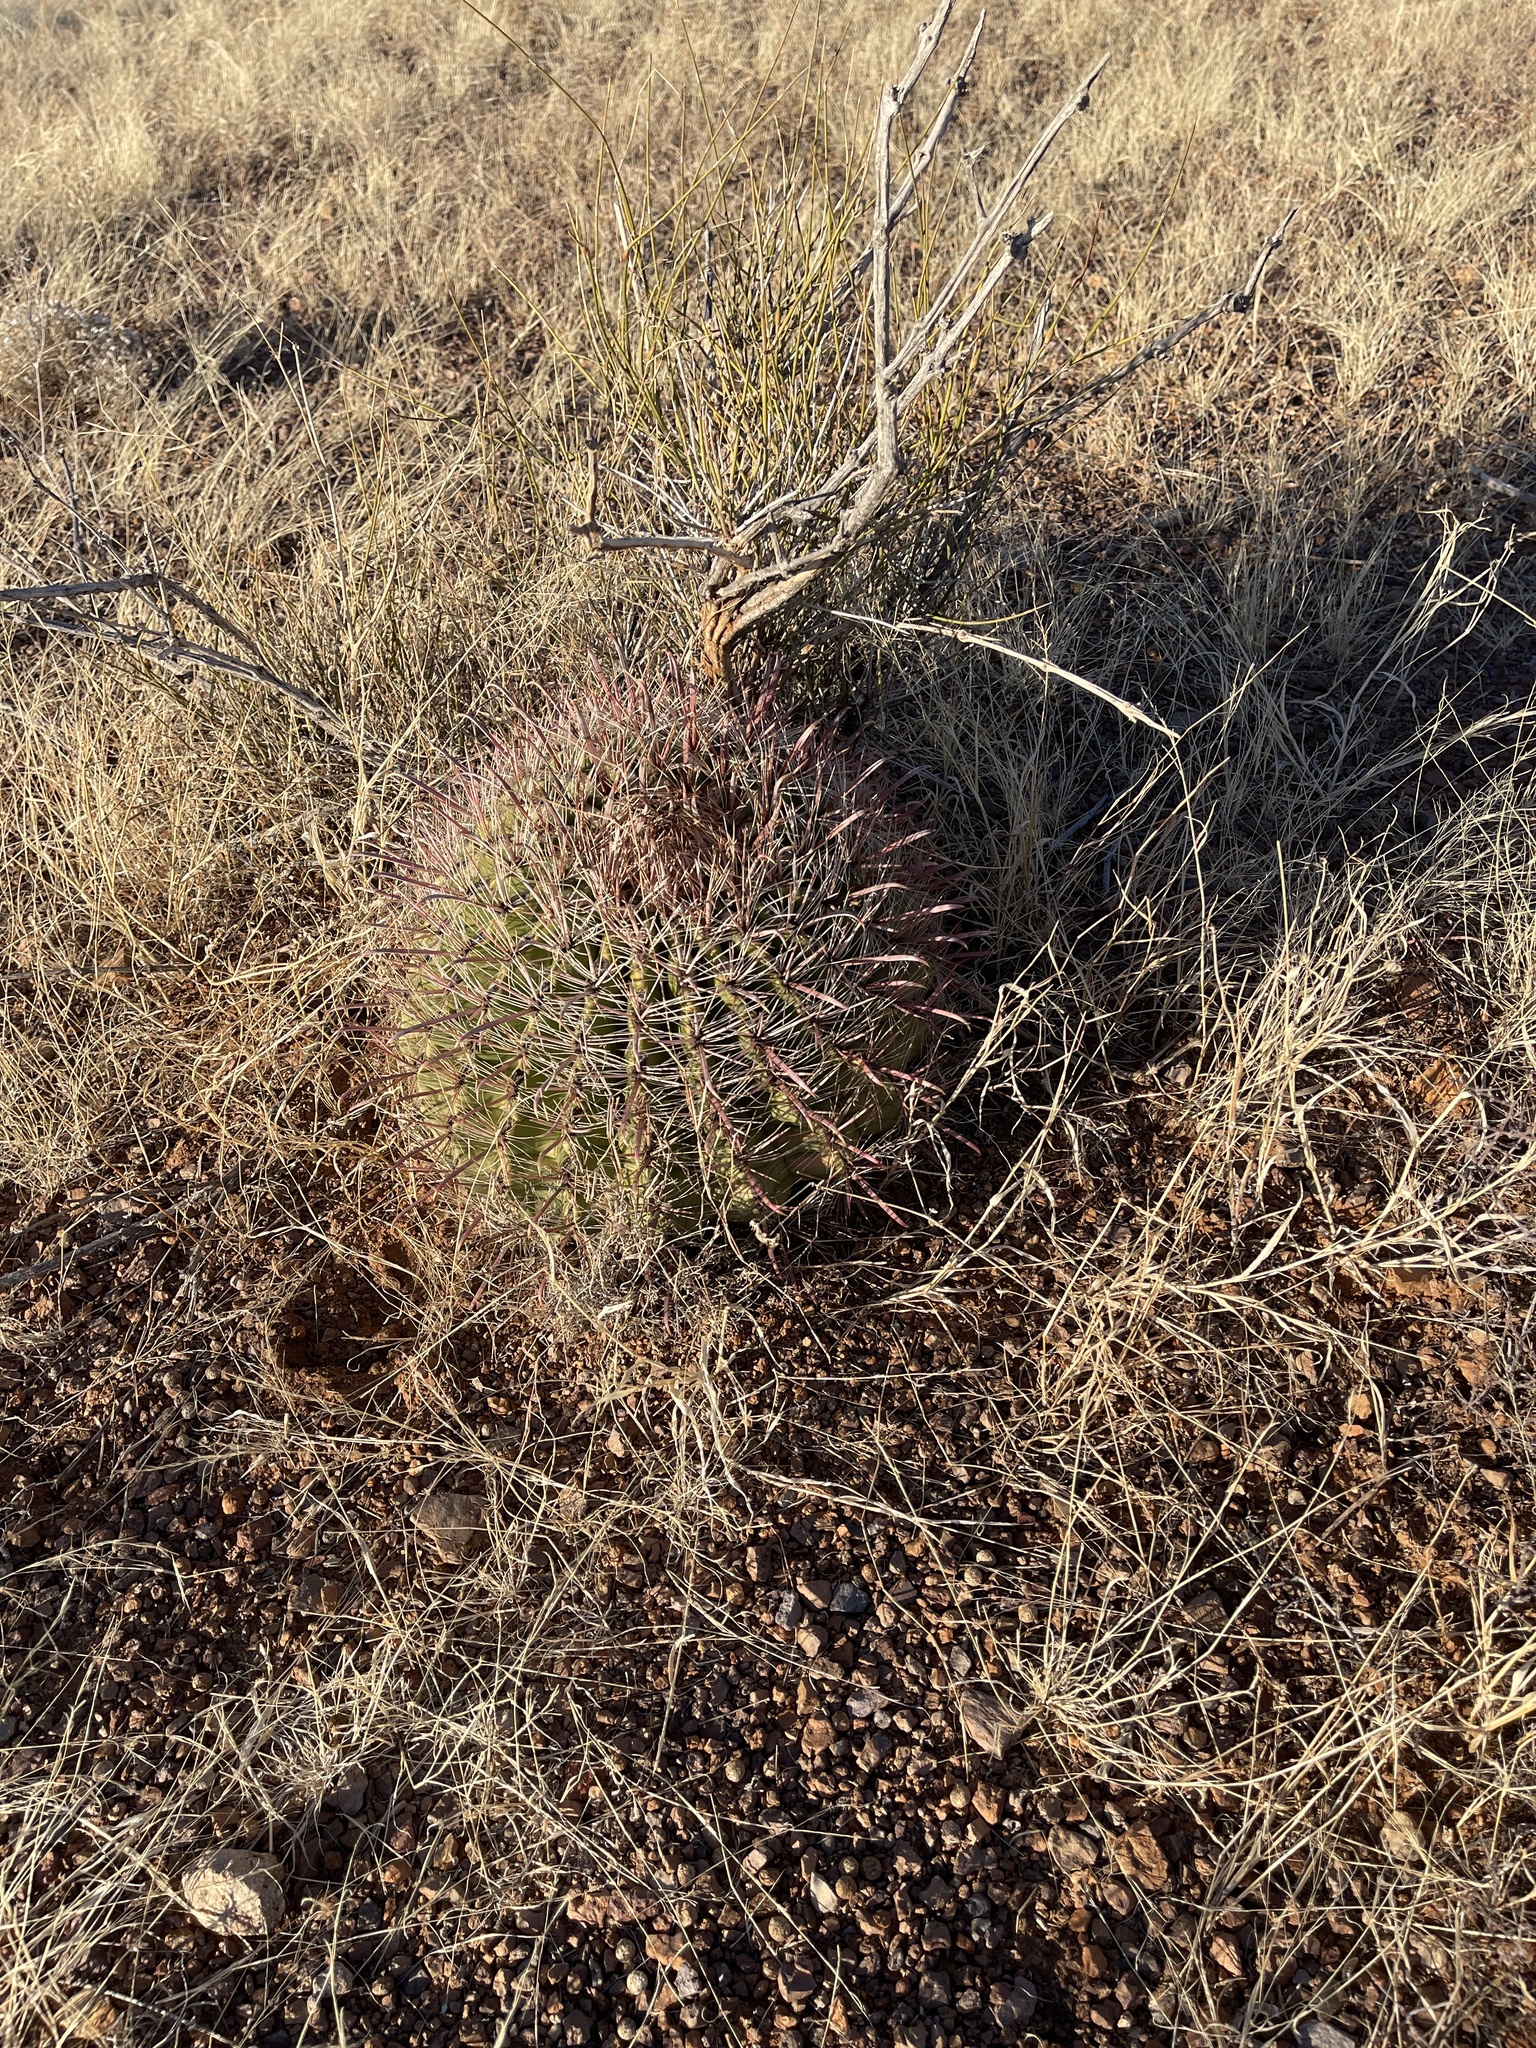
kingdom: Plantae
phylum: Tracheophyta
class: Magnoliopsida
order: Caryophyllales
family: Cactaceae
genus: Ferocactus
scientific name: Ferocactus wislizeni
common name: Candy barrel cactus
